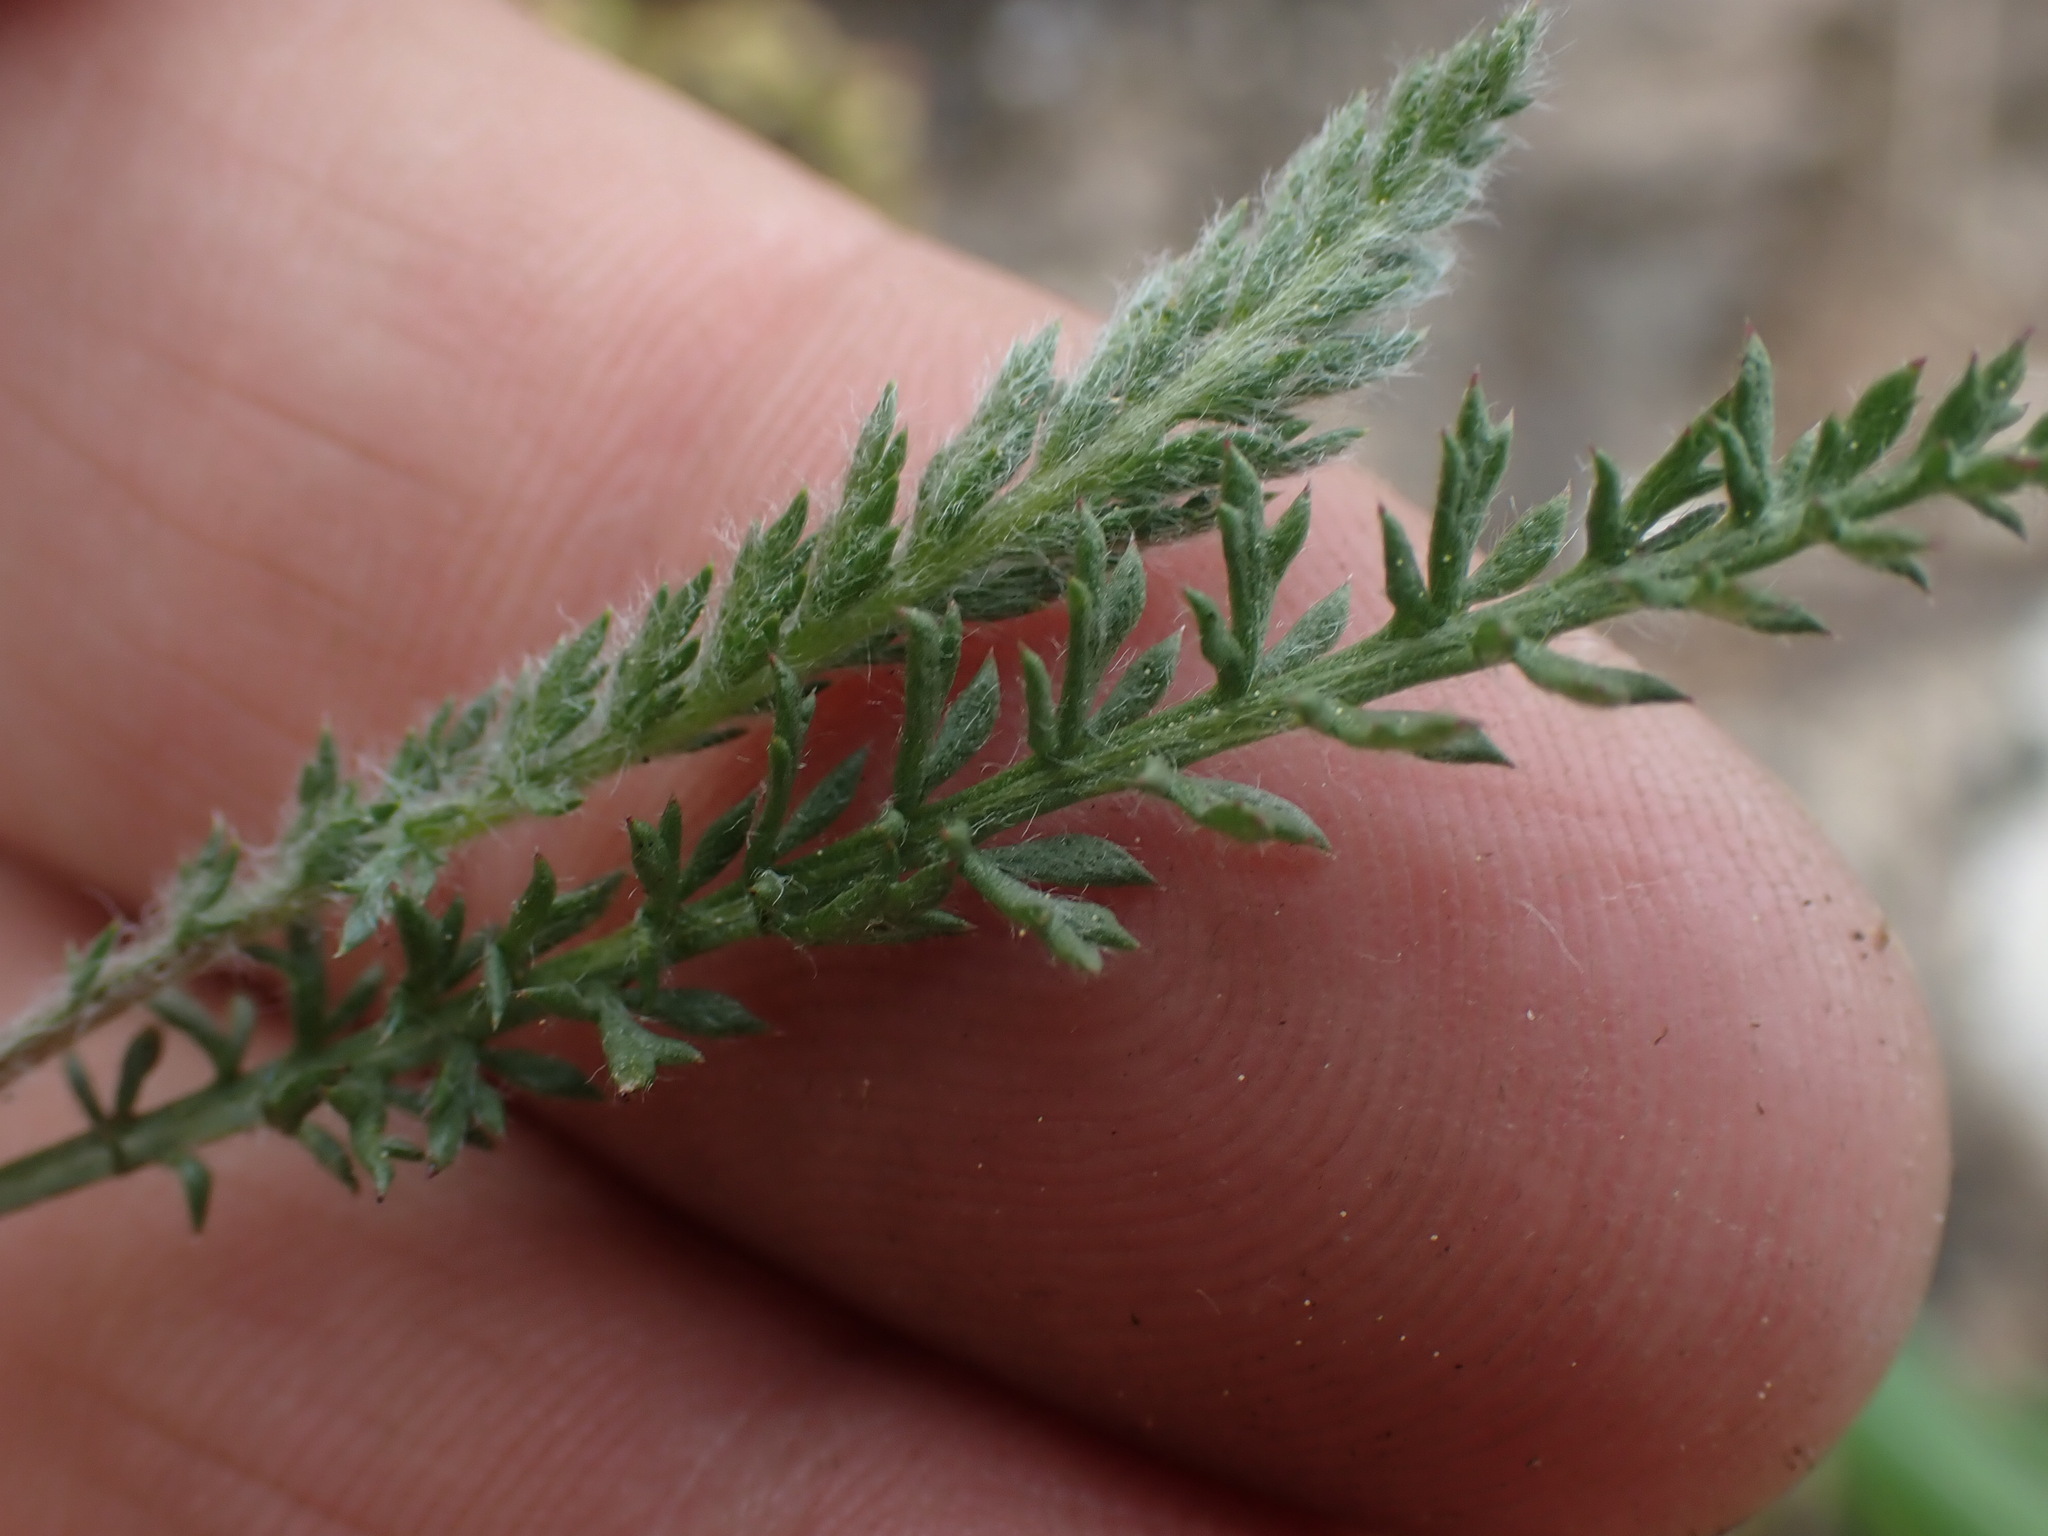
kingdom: Plantae
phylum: Tracheophyta
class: Magnoliopsida
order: Asterales
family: Asteraceae
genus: Achillea
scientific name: Achillea millefolium
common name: Yarrow
